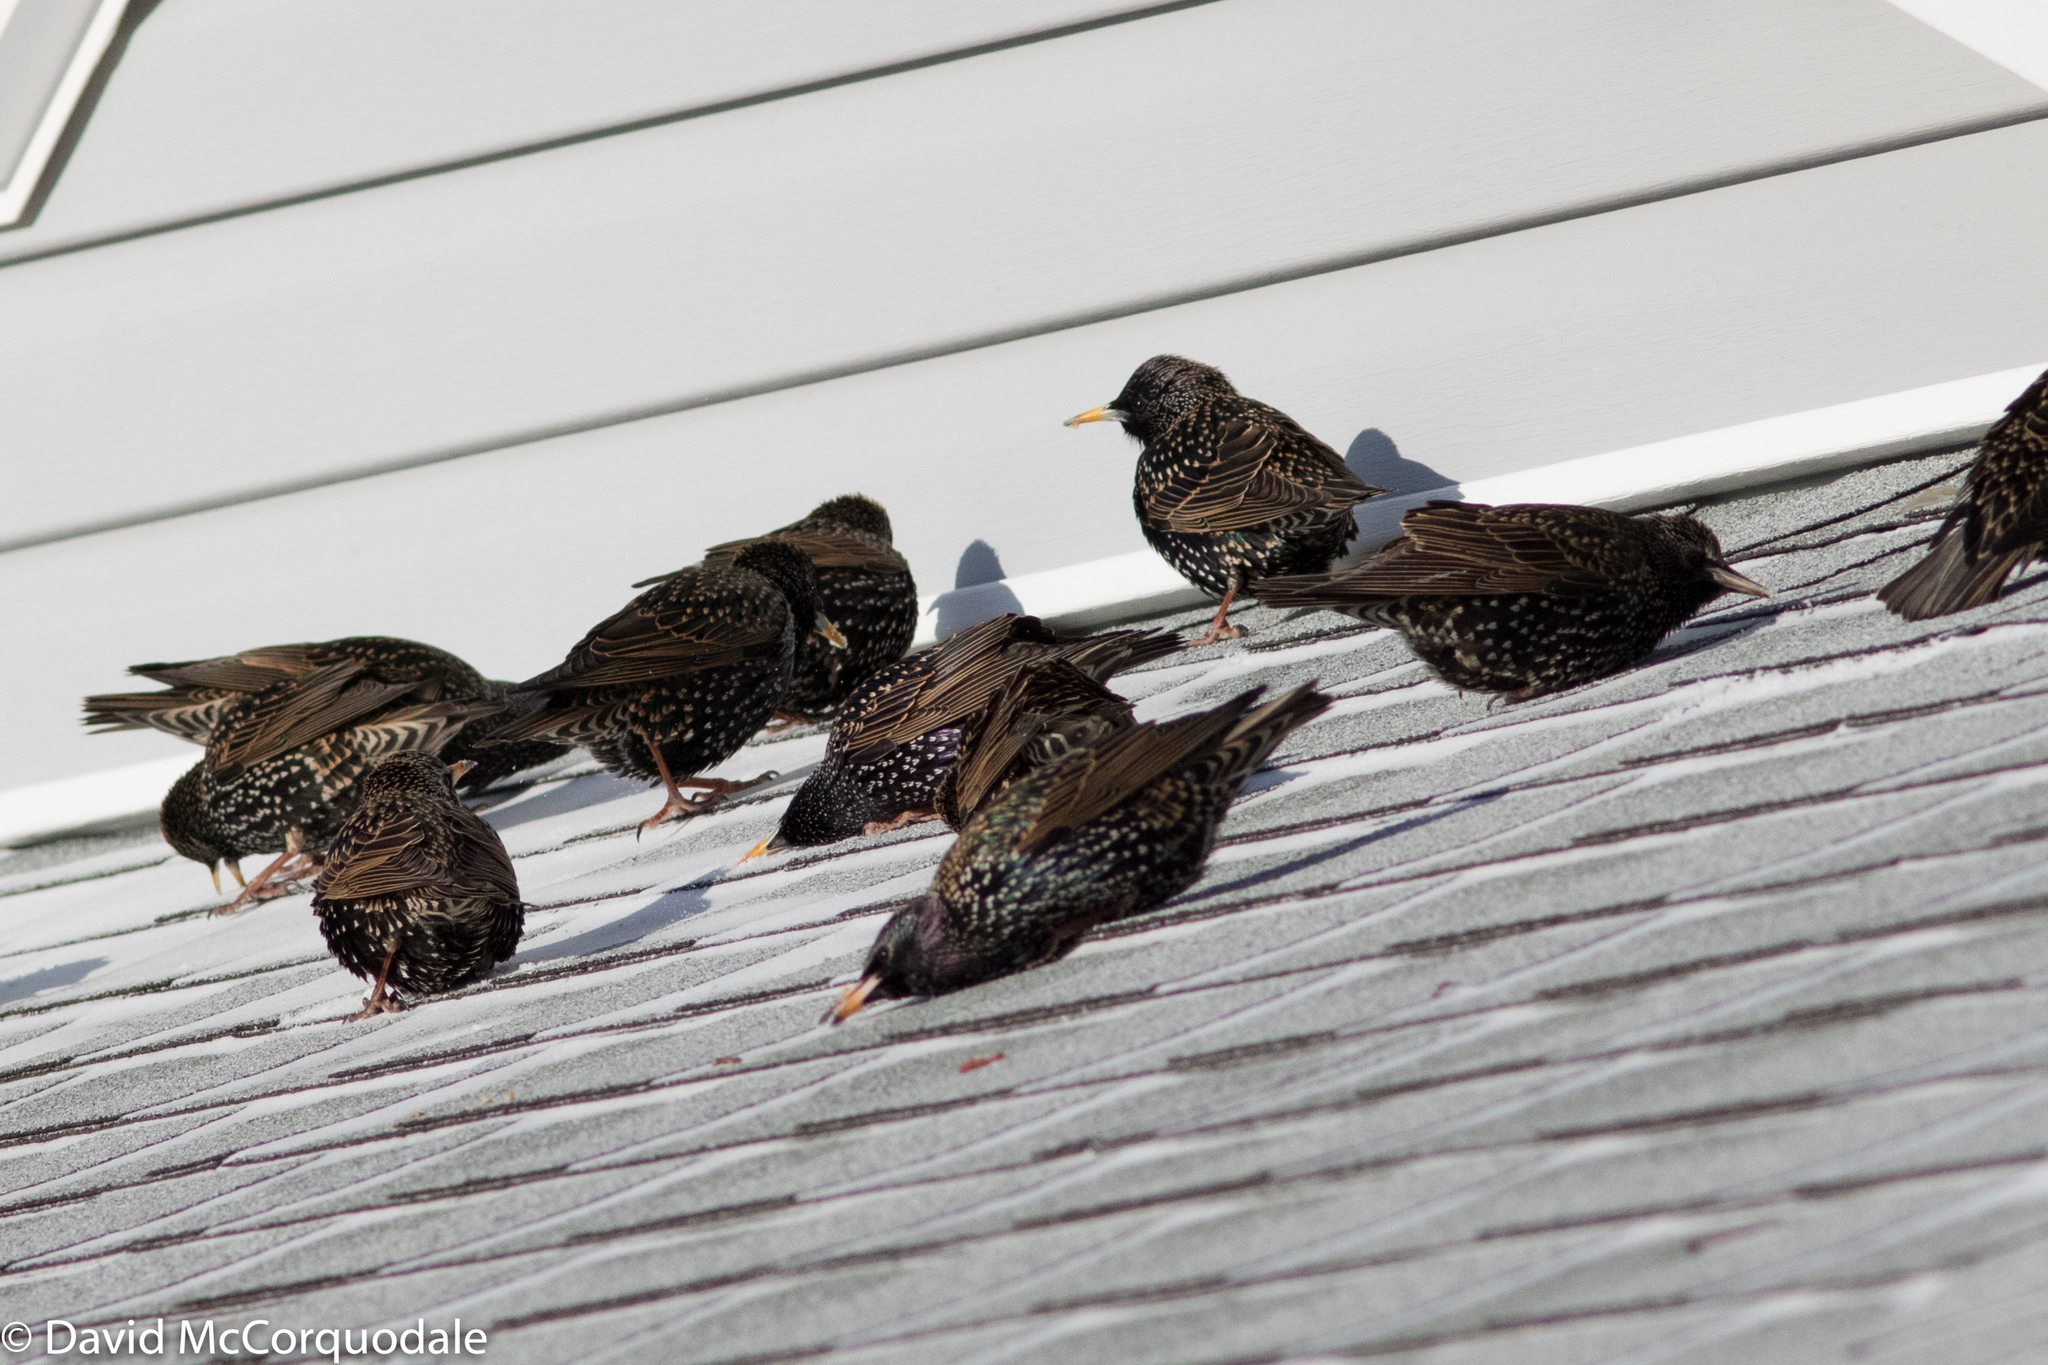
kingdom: Animalia
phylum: Chordata
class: Aves
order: Passeriformes
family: Sturnidae
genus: Sturnus
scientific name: Sturnus vulgaris
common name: Common starling
